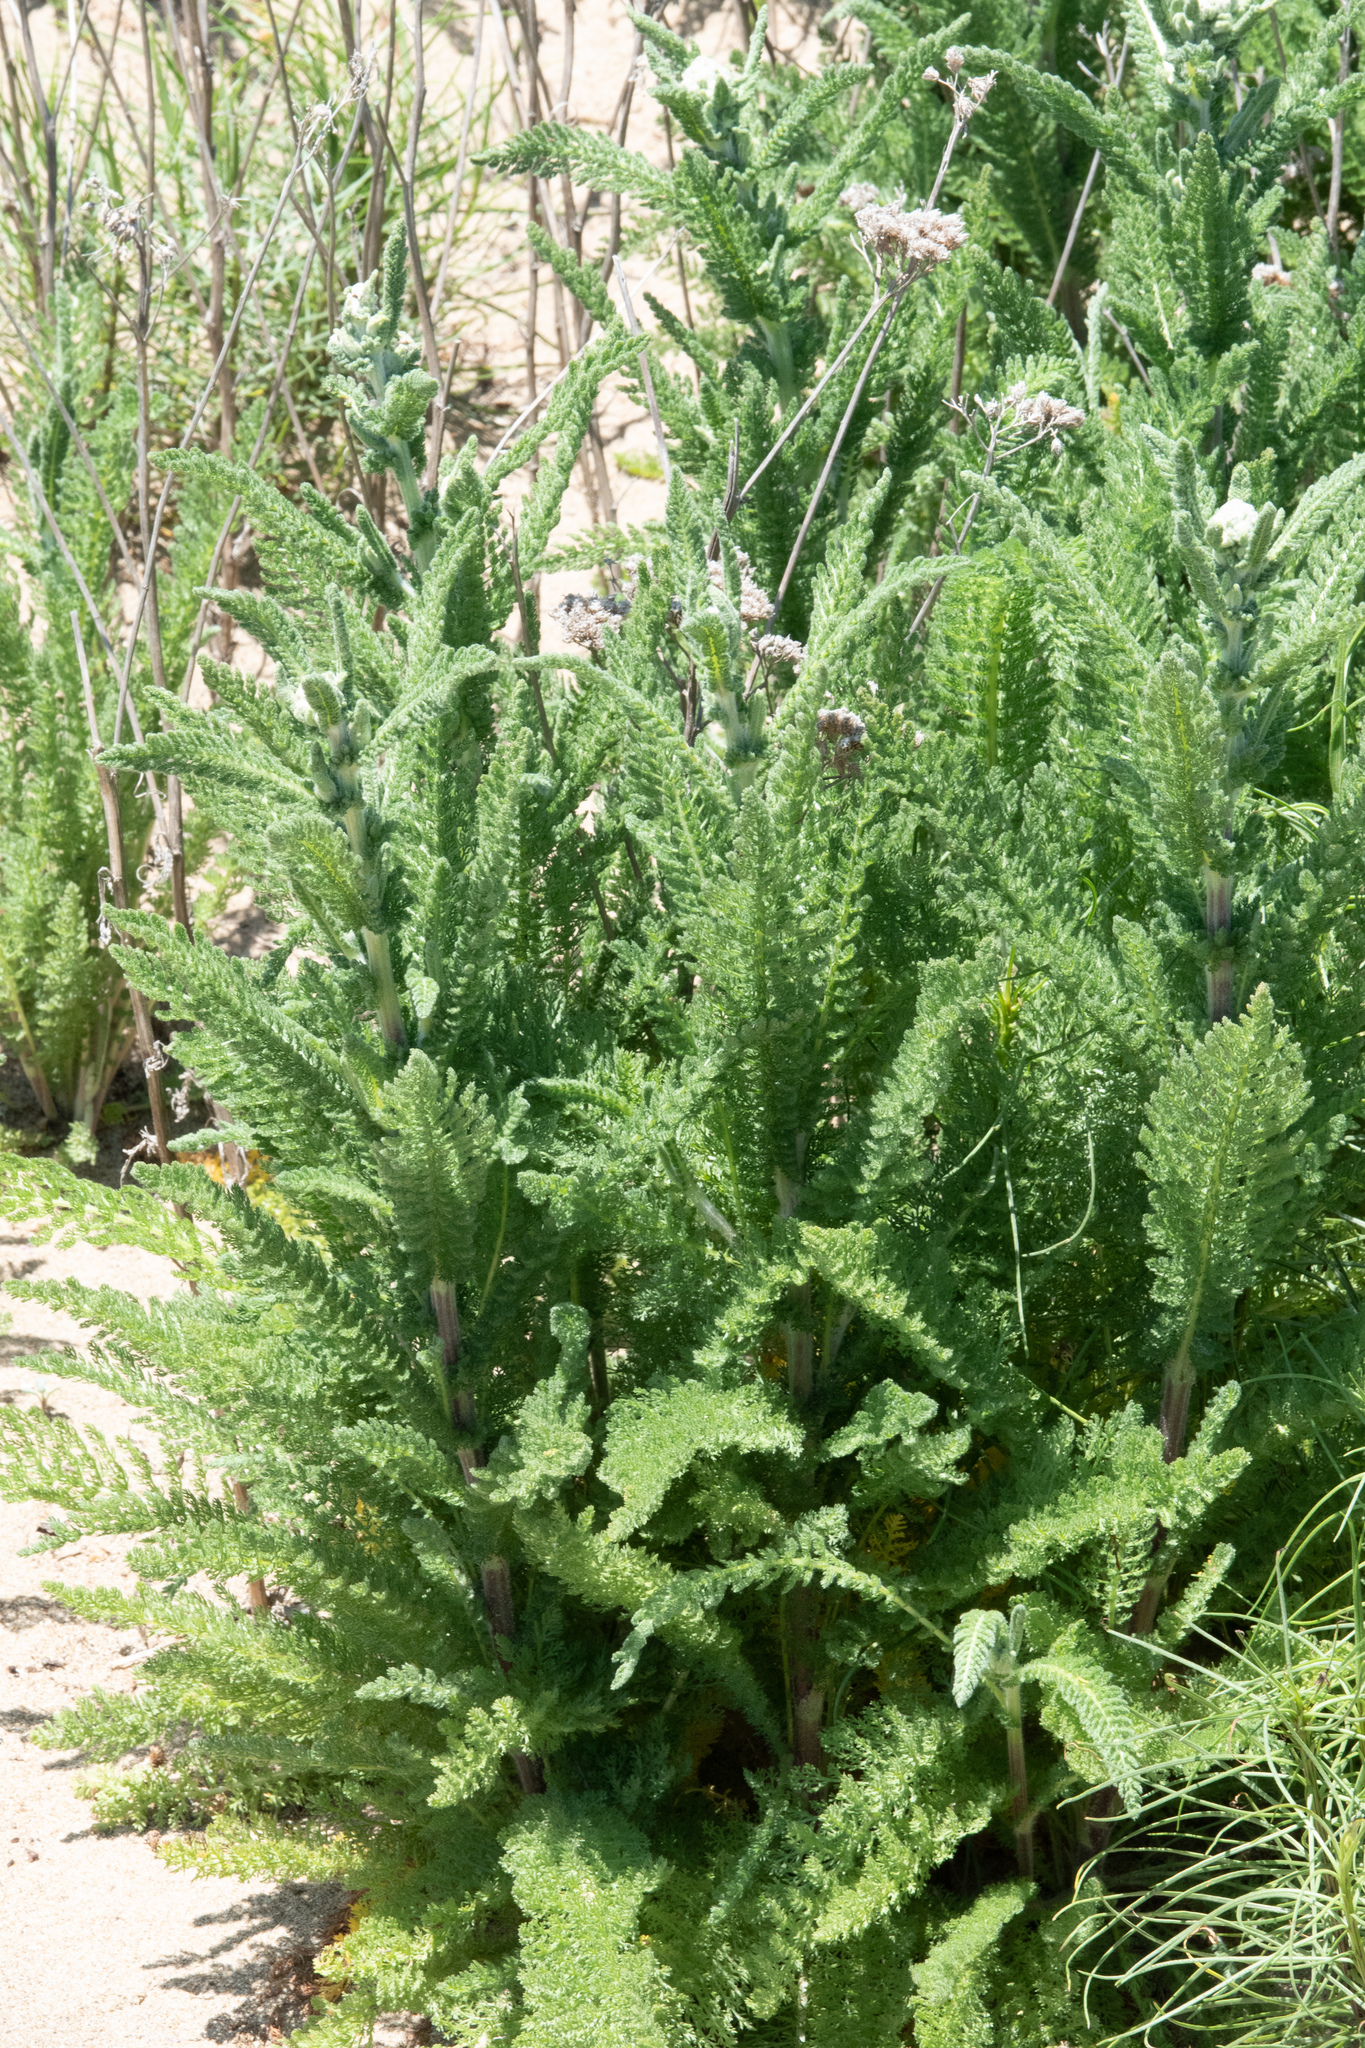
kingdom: Plantae
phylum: Tracheophyta
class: Magnoliopsida
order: Asterales
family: Asteraceae
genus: Achillea
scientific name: Achillea millefolium
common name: Yarrow
